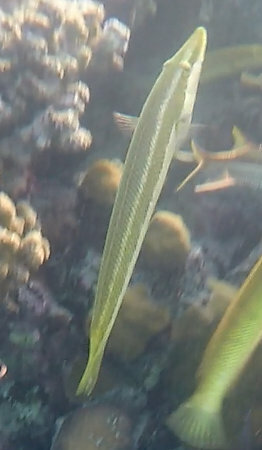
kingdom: Animalia
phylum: Chordata
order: Perciformes
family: Labridae
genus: Cheilio
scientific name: Cheilio inermis
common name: Cigar wrasse
